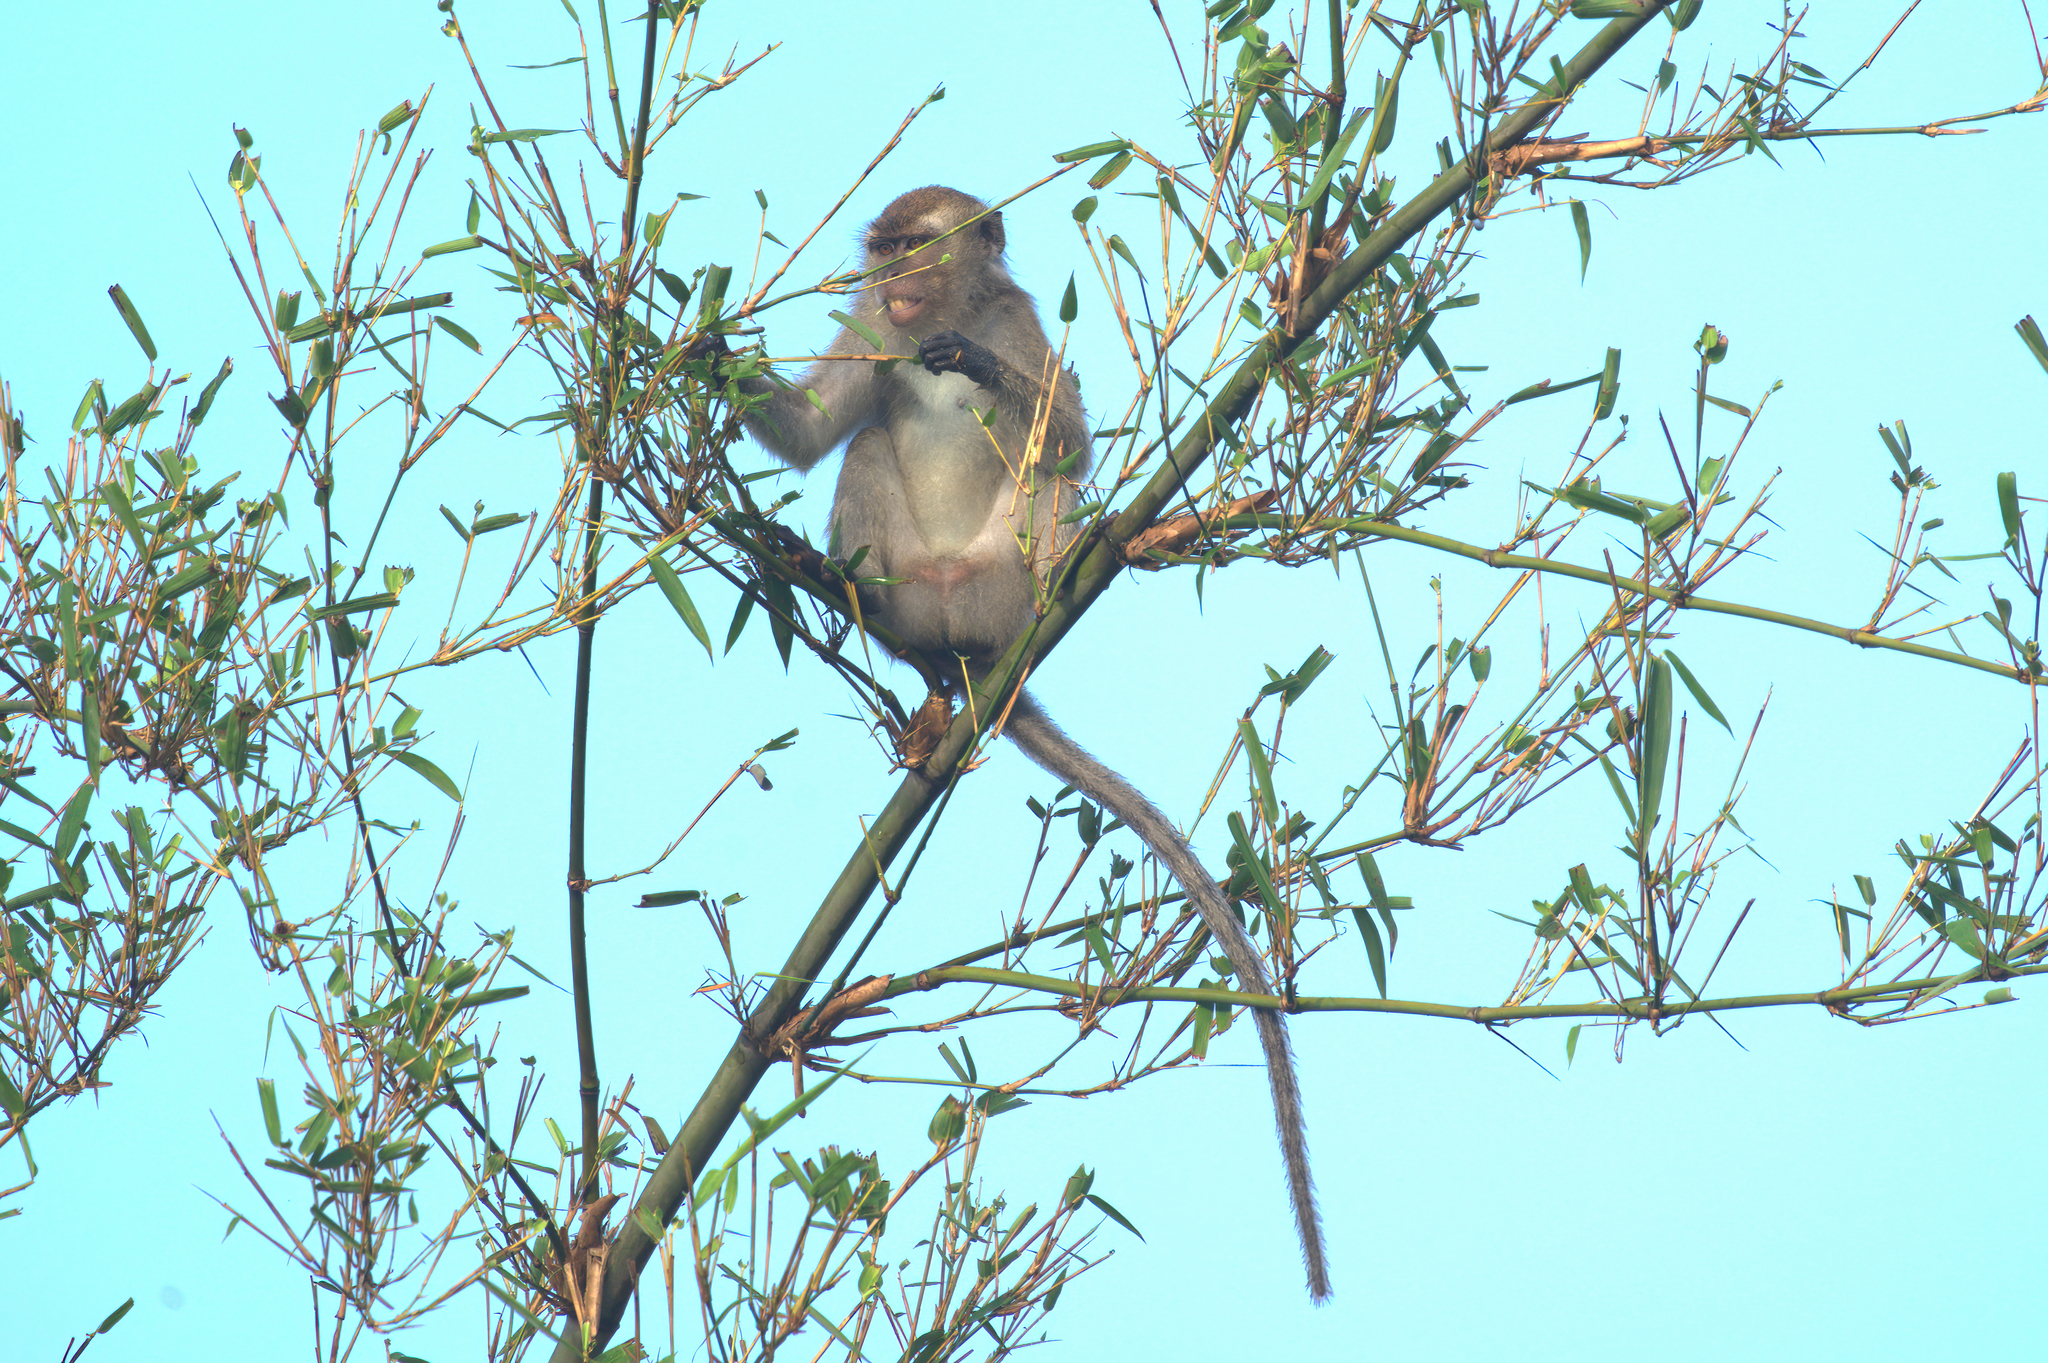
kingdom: Animalia
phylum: Chordata
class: Mammalia
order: Primates
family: Cercopithecidae
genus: Macaca
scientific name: Macaca fascicularis
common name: Crab-eating macaque
